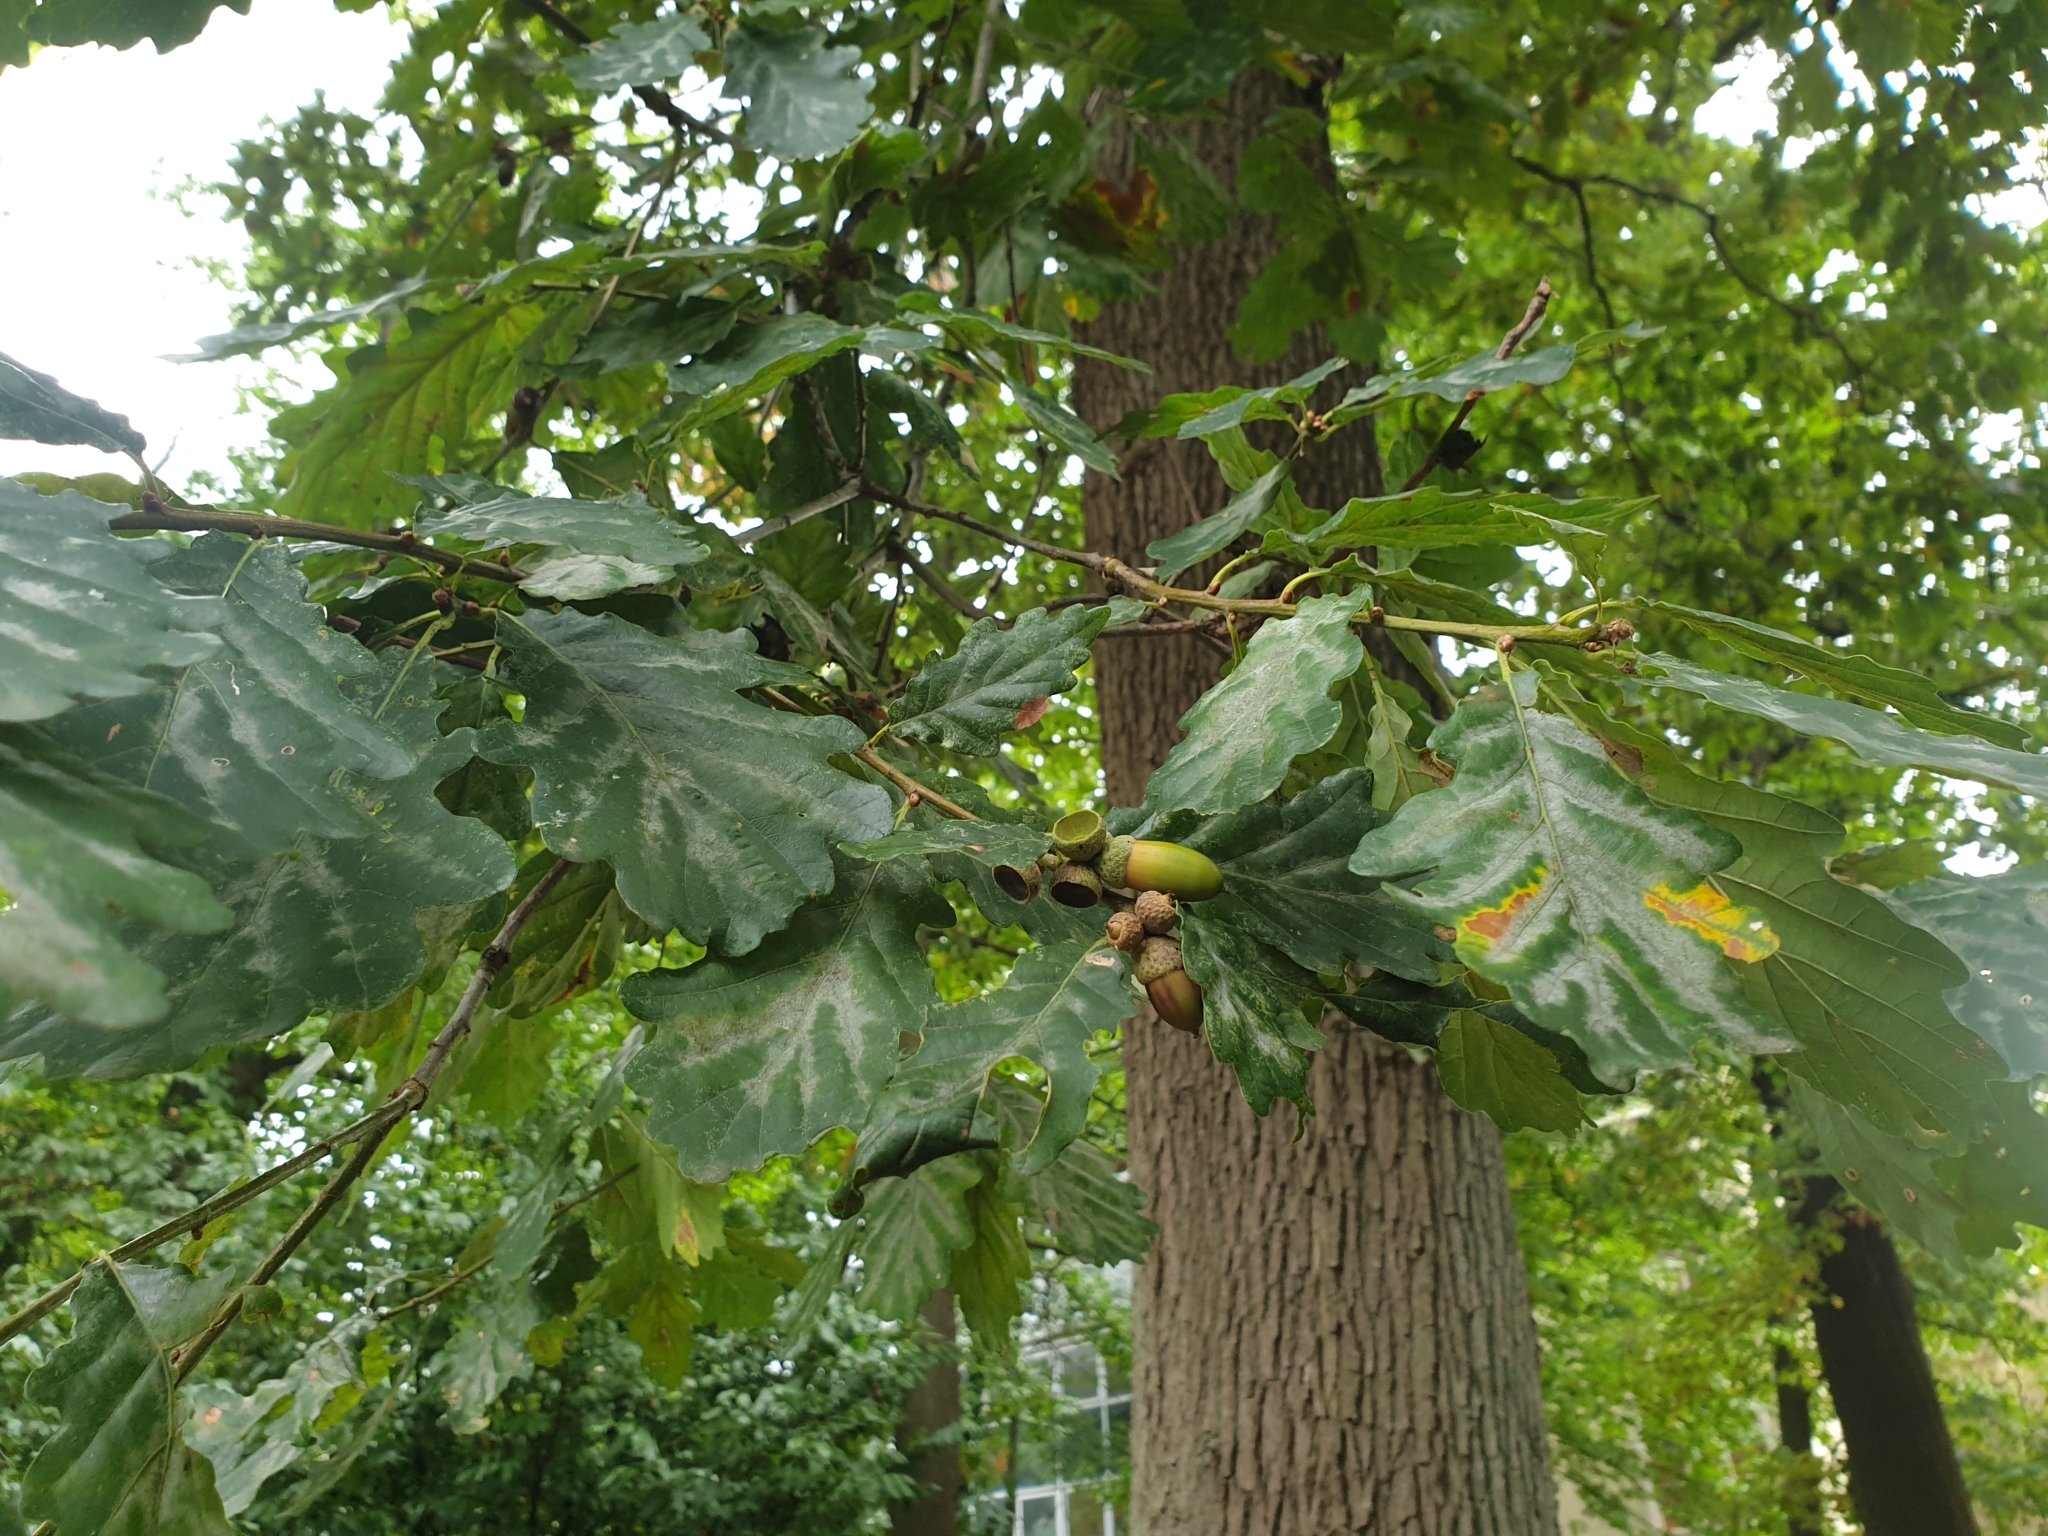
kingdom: Plantae
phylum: Tracheophyta
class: Magnoliopsida
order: Fagales
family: Fagaceae
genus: Quercus
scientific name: Quercus petraea
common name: Sessile oak
